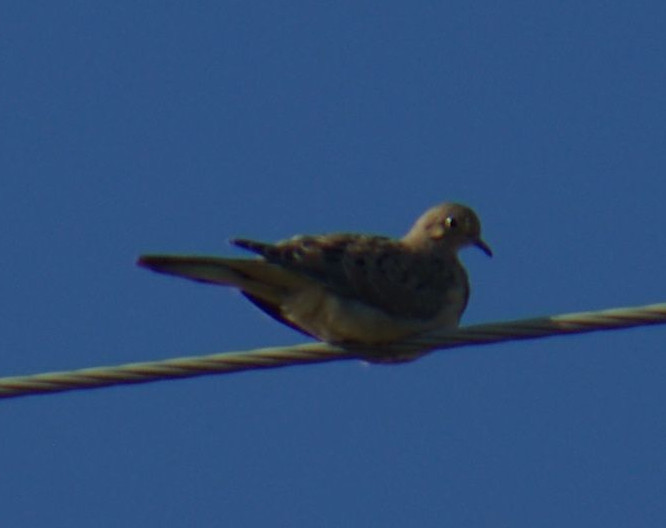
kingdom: Animalia
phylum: Chordata
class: Aves
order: Columbiformes
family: Columbidae
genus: Zenaida
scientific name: Zenaida macroura
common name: Mourning dove
